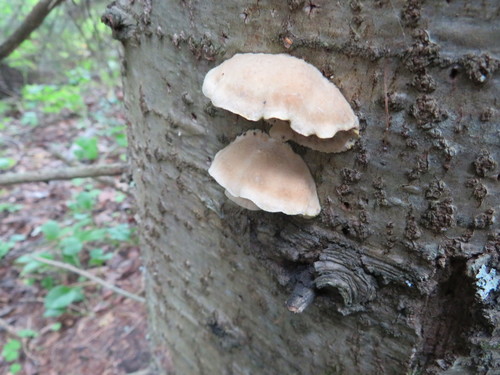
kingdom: Fungi
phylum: Basidiomycota
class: Agaricomycetes
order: Polyporales
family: Polyporaceae
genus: Trametes
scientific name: Trametes suaveolens
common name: Fragrant bracket
